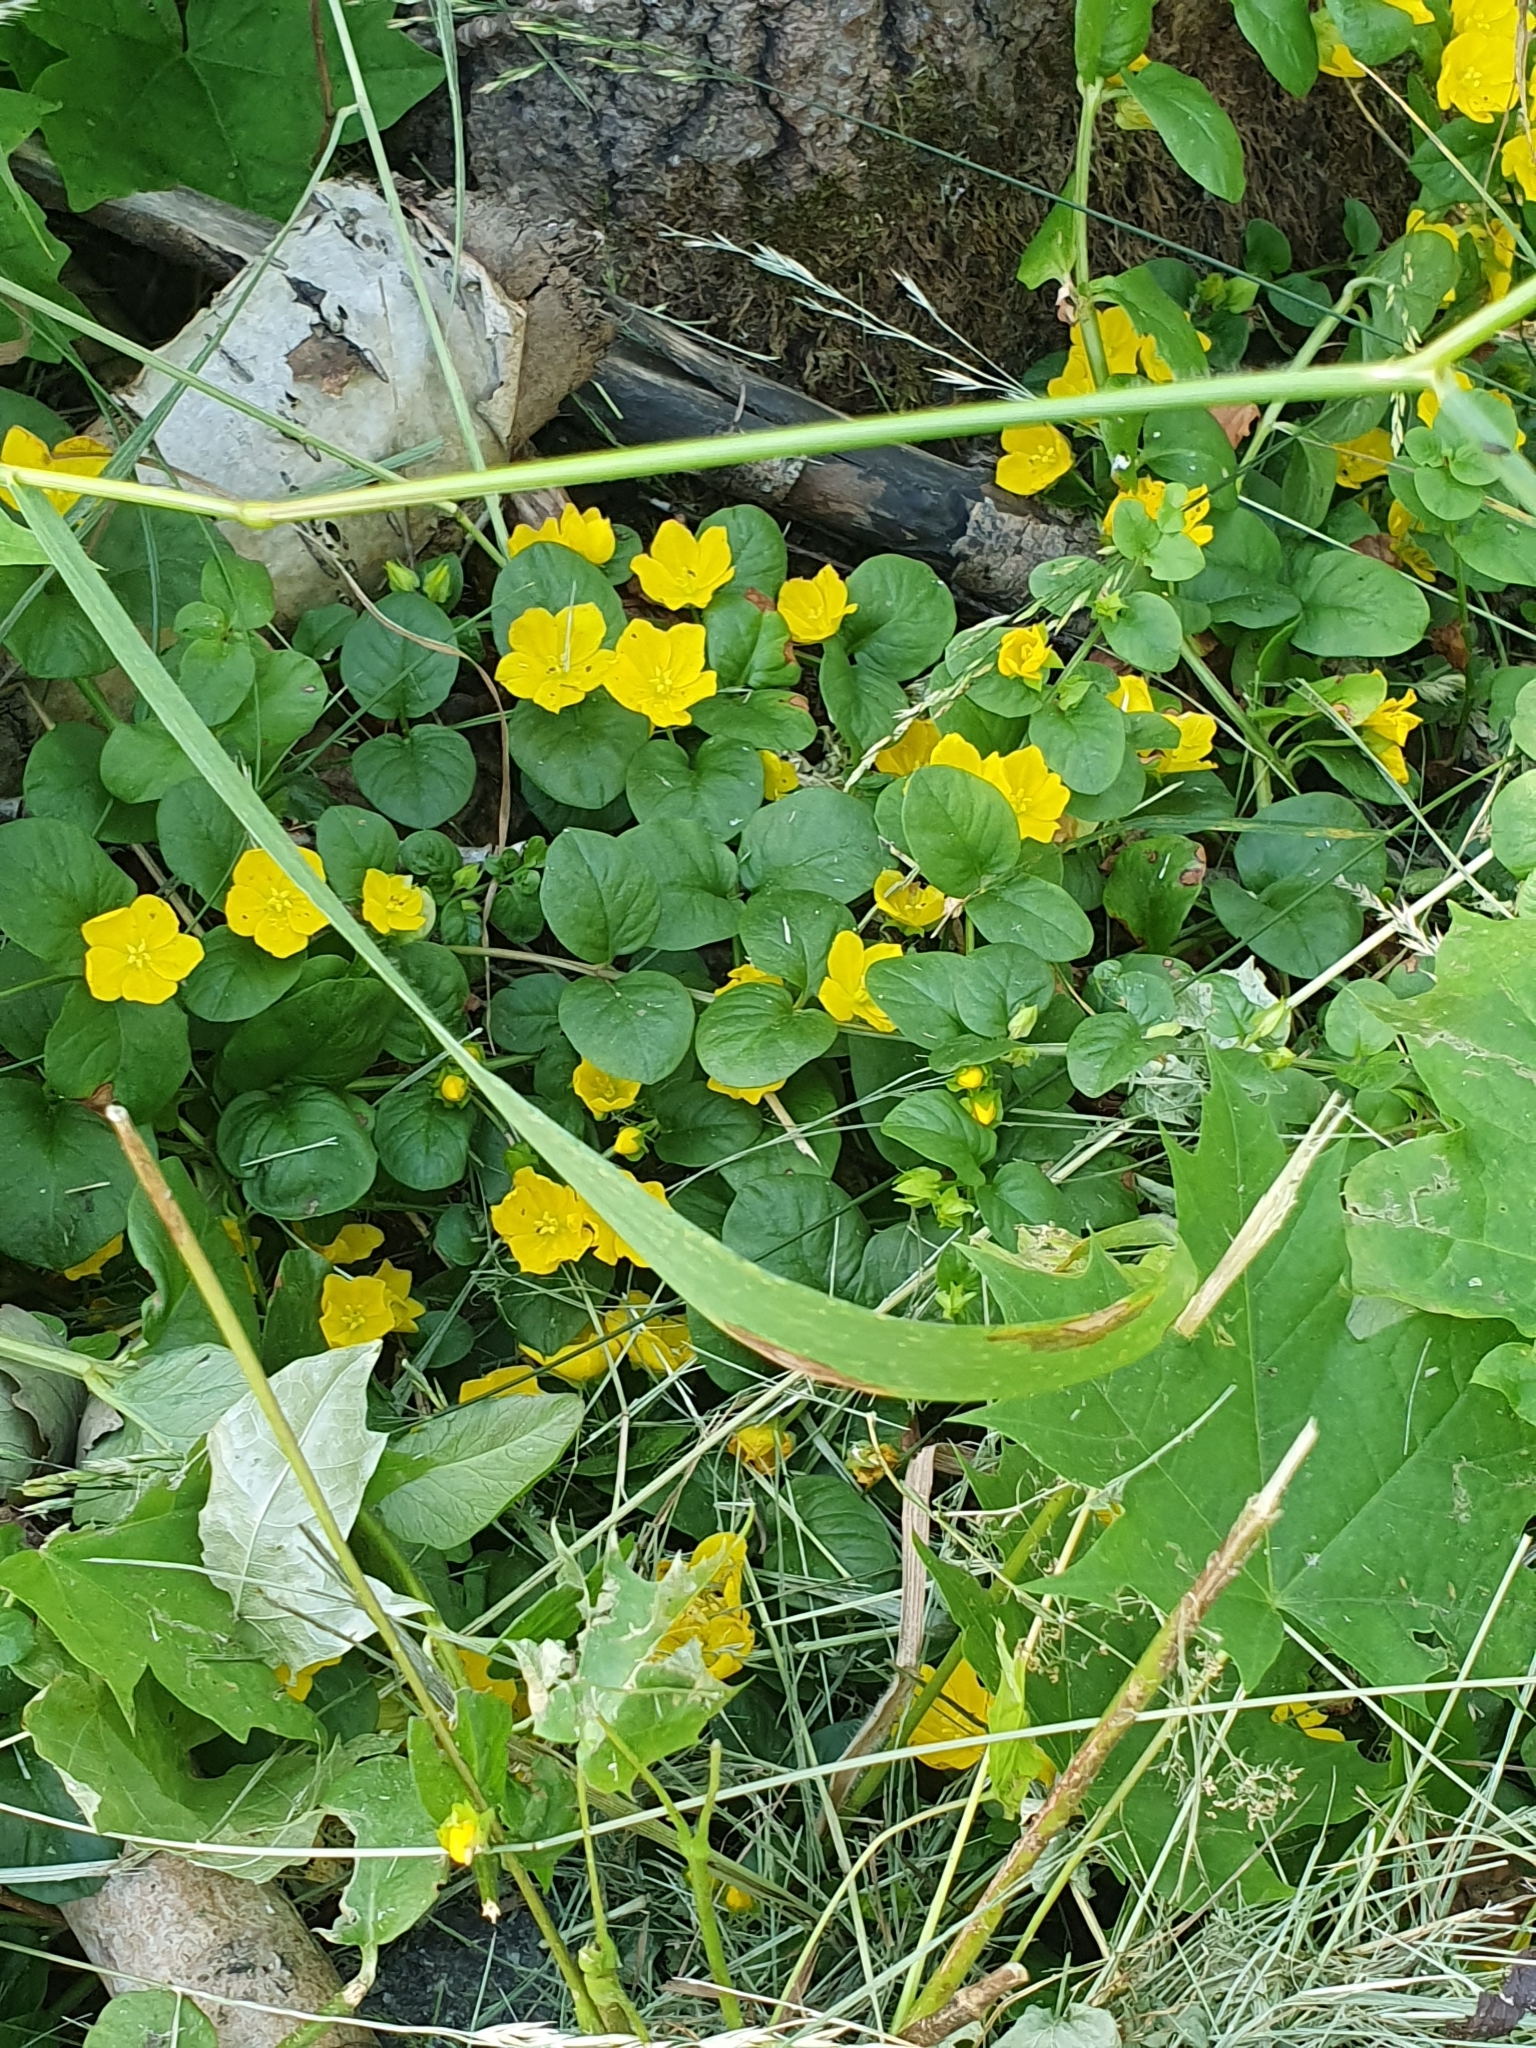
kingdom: Plantae
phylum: Tracheophyta
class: Magnoliopsida
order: Ericales
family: Primulaceae
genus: Lysimachia
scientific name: Lysimachia nummularia
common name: Moneywort
